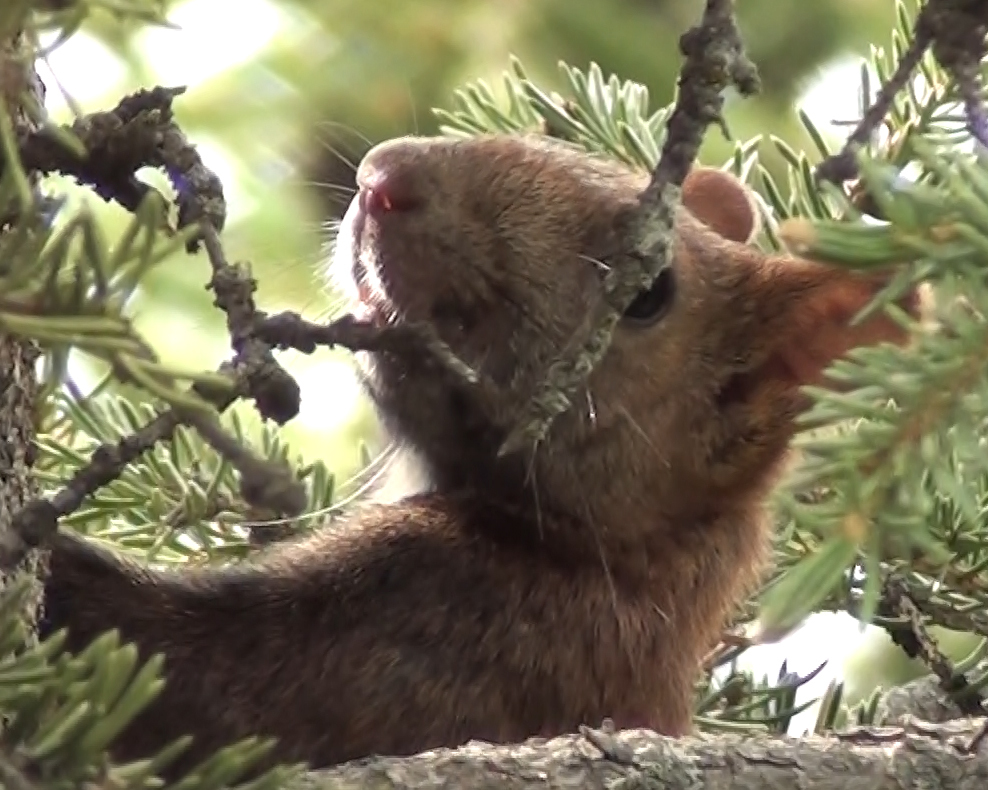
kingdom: Animalia
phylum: Chordata
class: Mammalia
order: Rodentia
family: Sciuridae
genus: Sciurus
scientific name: Sciurus vulgaris
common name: Eurasian red squirrel
